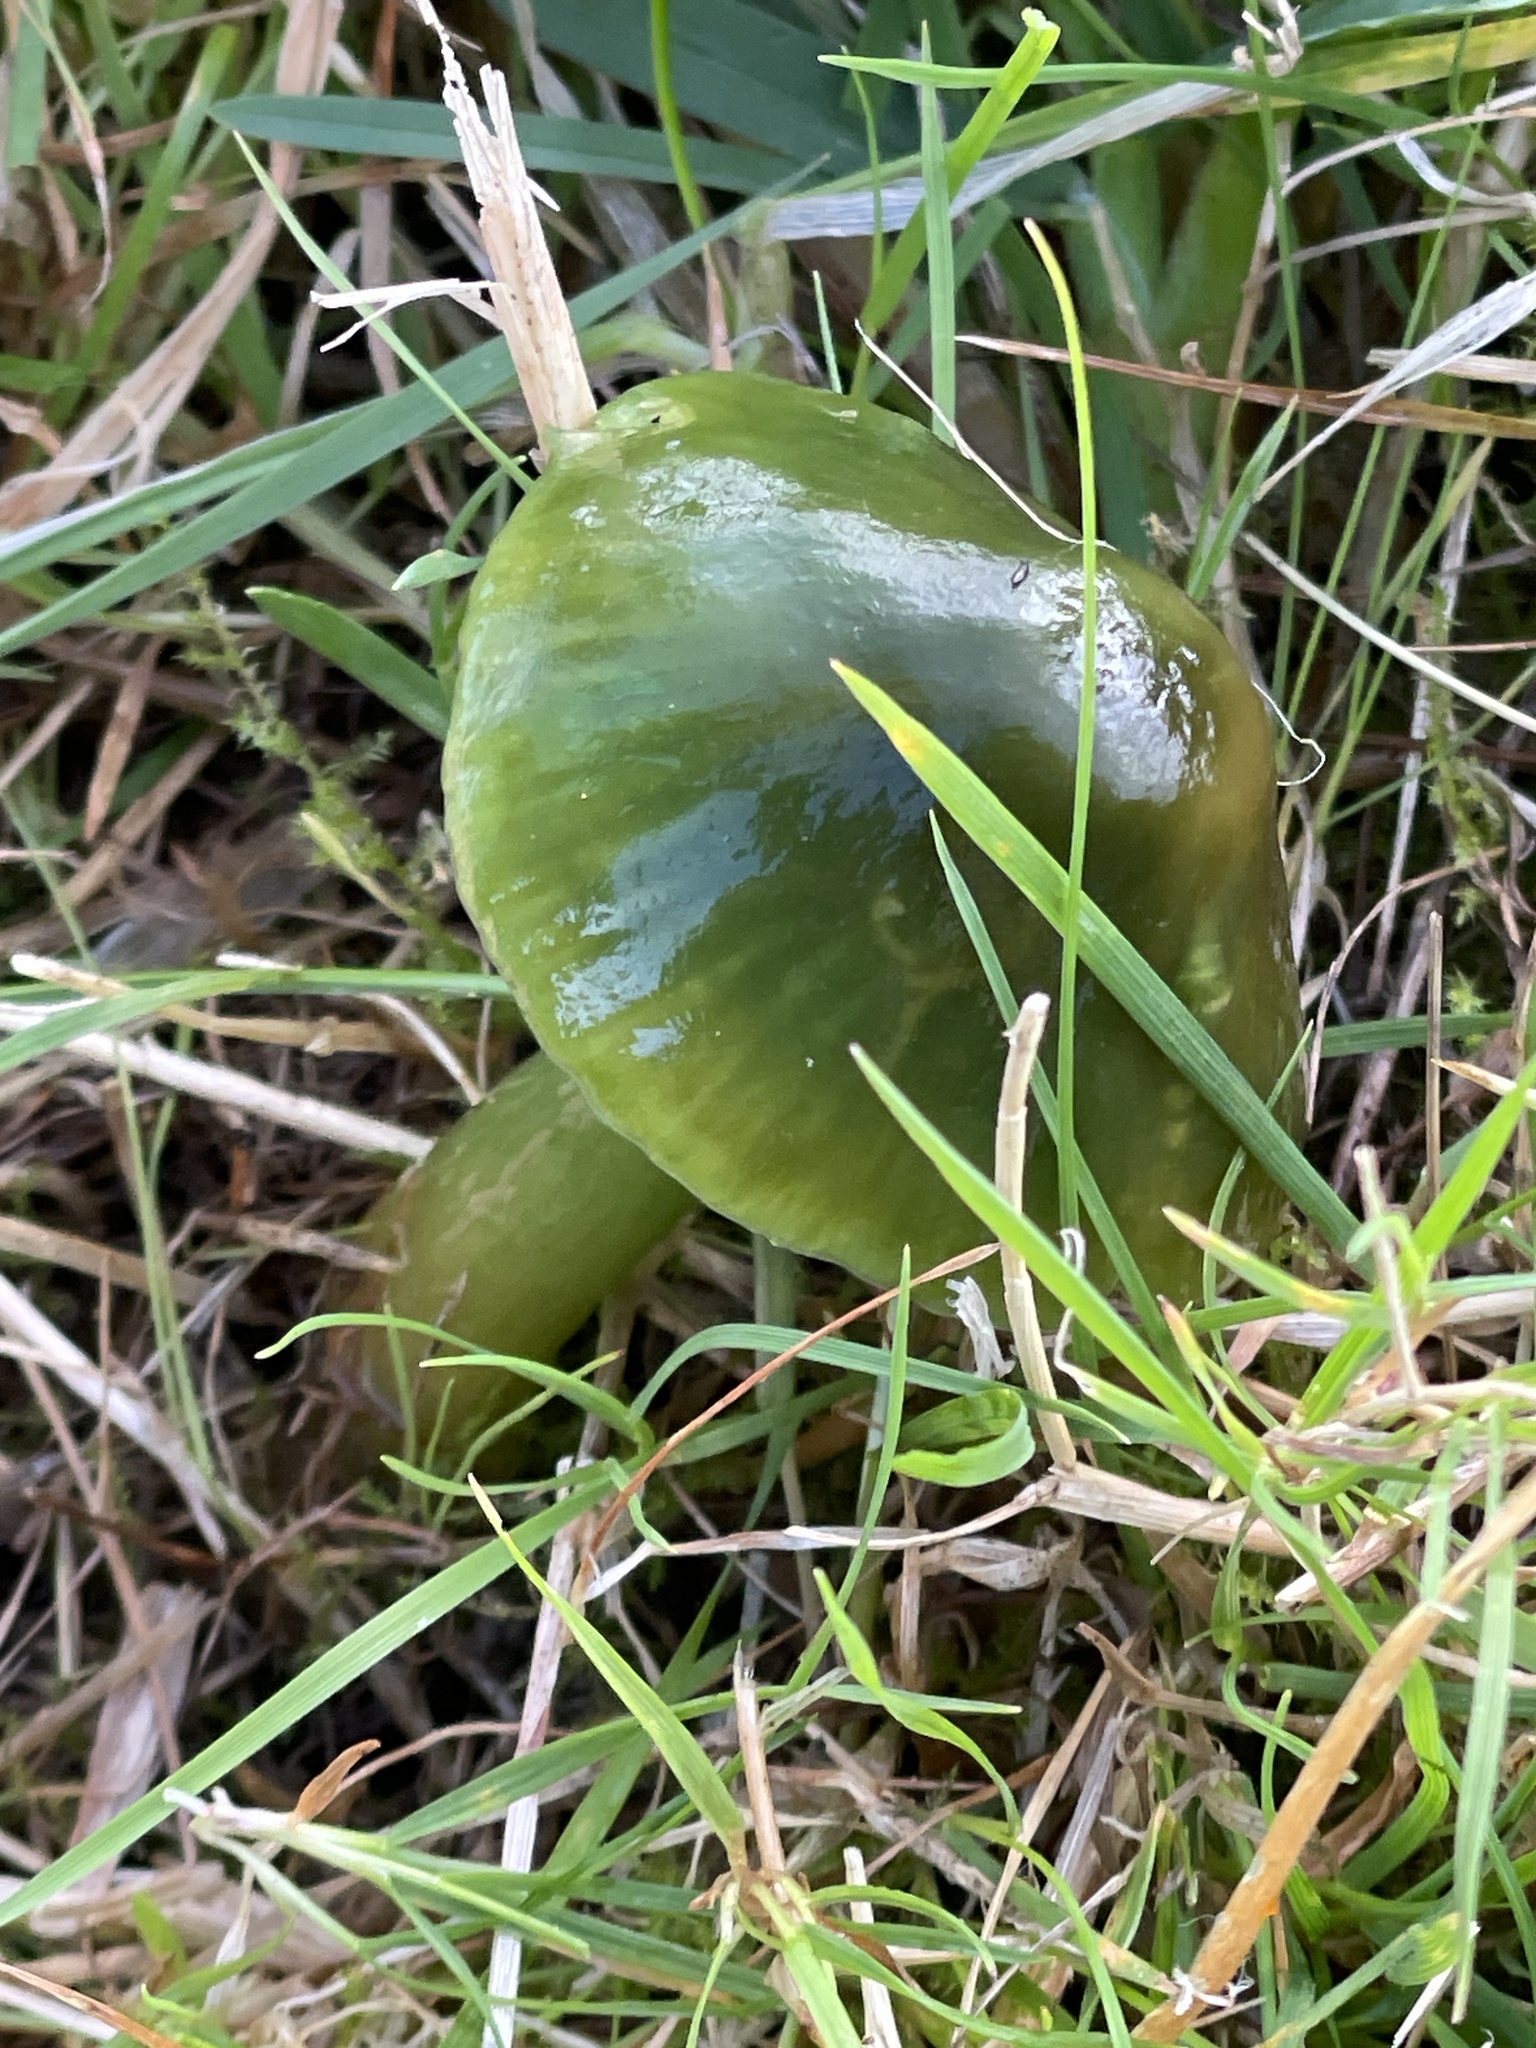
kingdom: Fungi
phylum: Basidiomycota
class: Agaricomycetes
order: Agaricales
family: Hygrophoraceae
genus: Gliophorus
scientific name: Gliophorus psittacinus
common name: Parrot wax-cap
